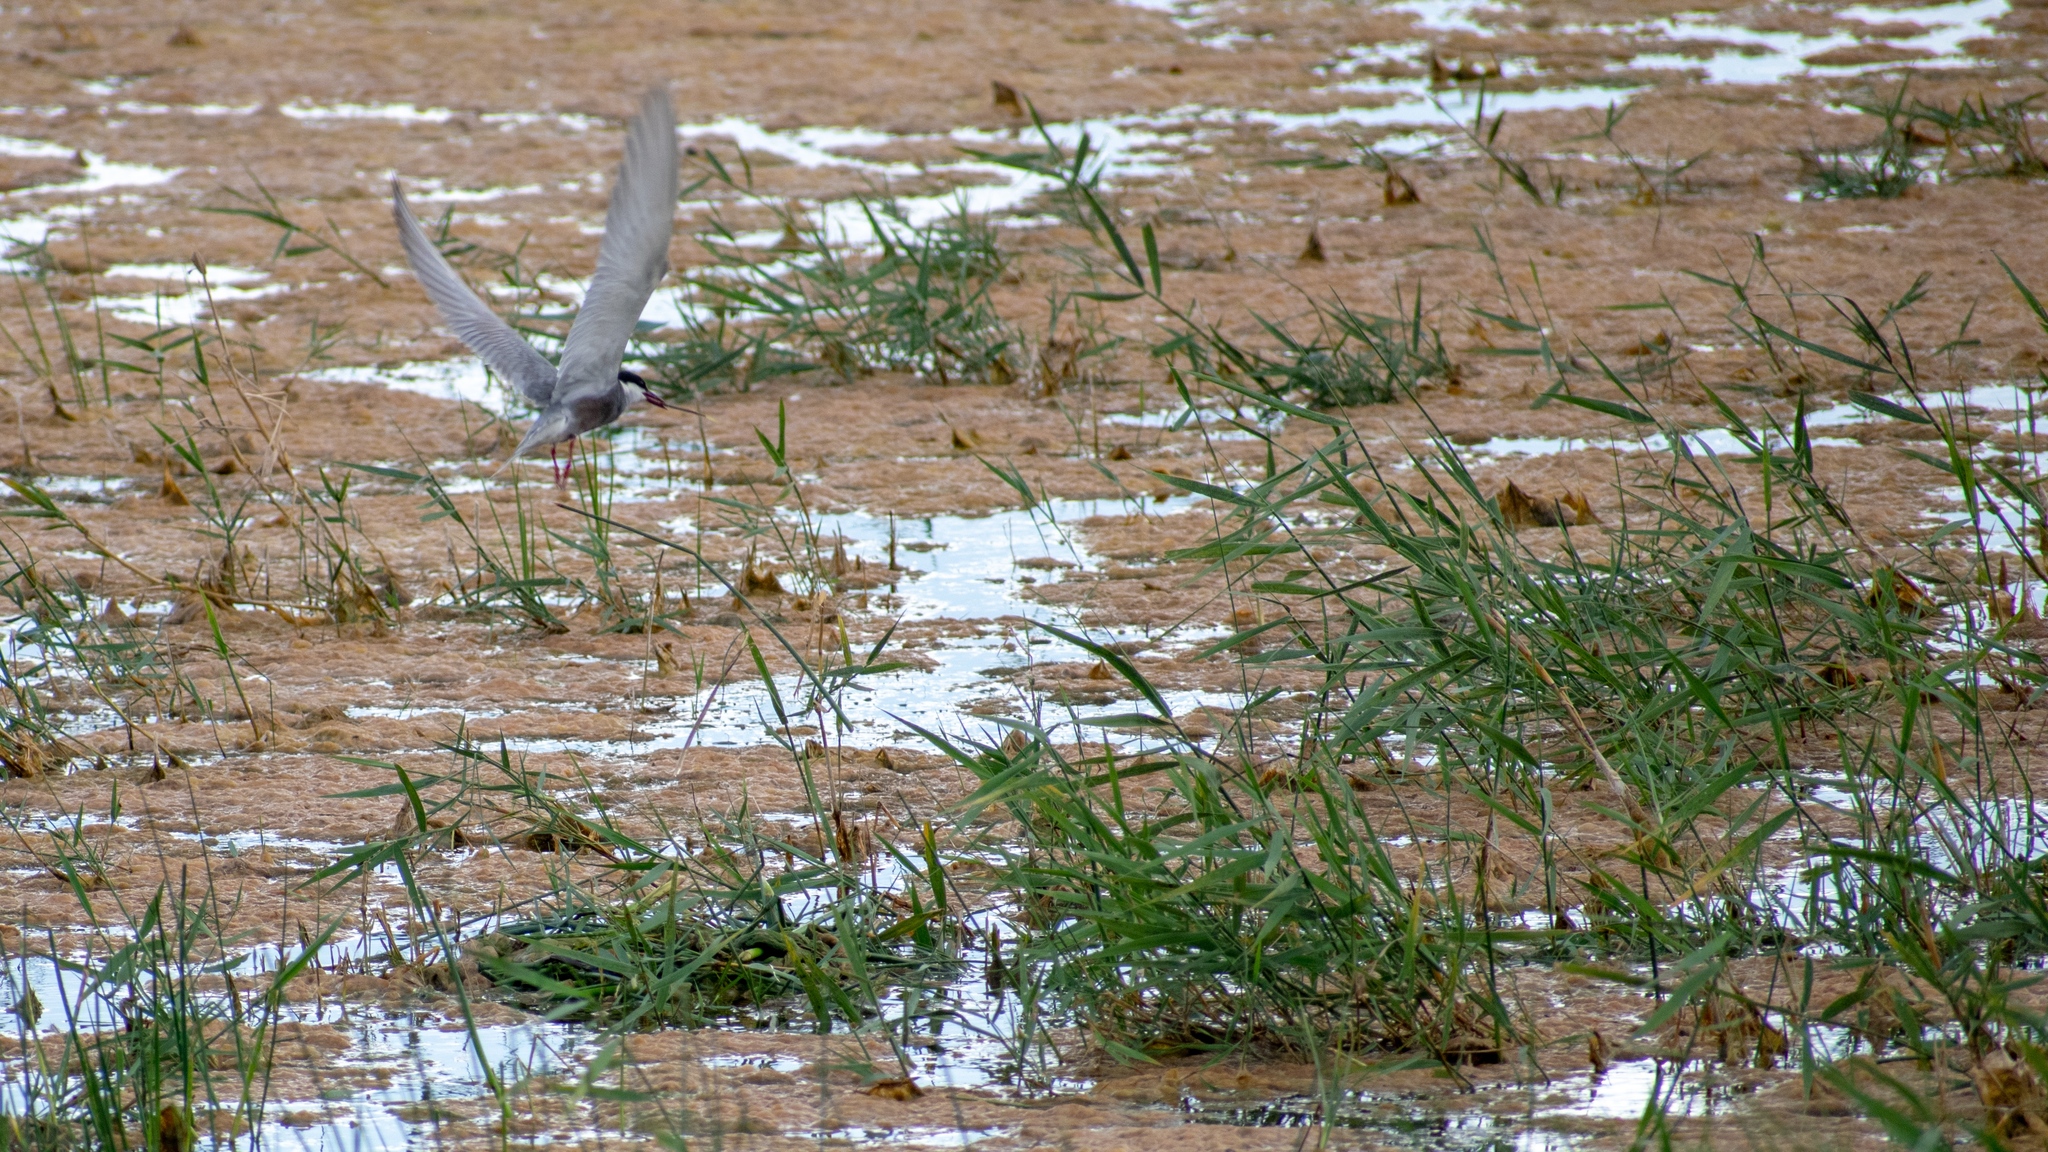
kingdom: Animalia
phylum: Chordata
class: Aves
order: Charadriiformes
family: Laridae
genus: Chlidonias
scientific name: Chlidonias hybrida
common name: Whiskered tern
